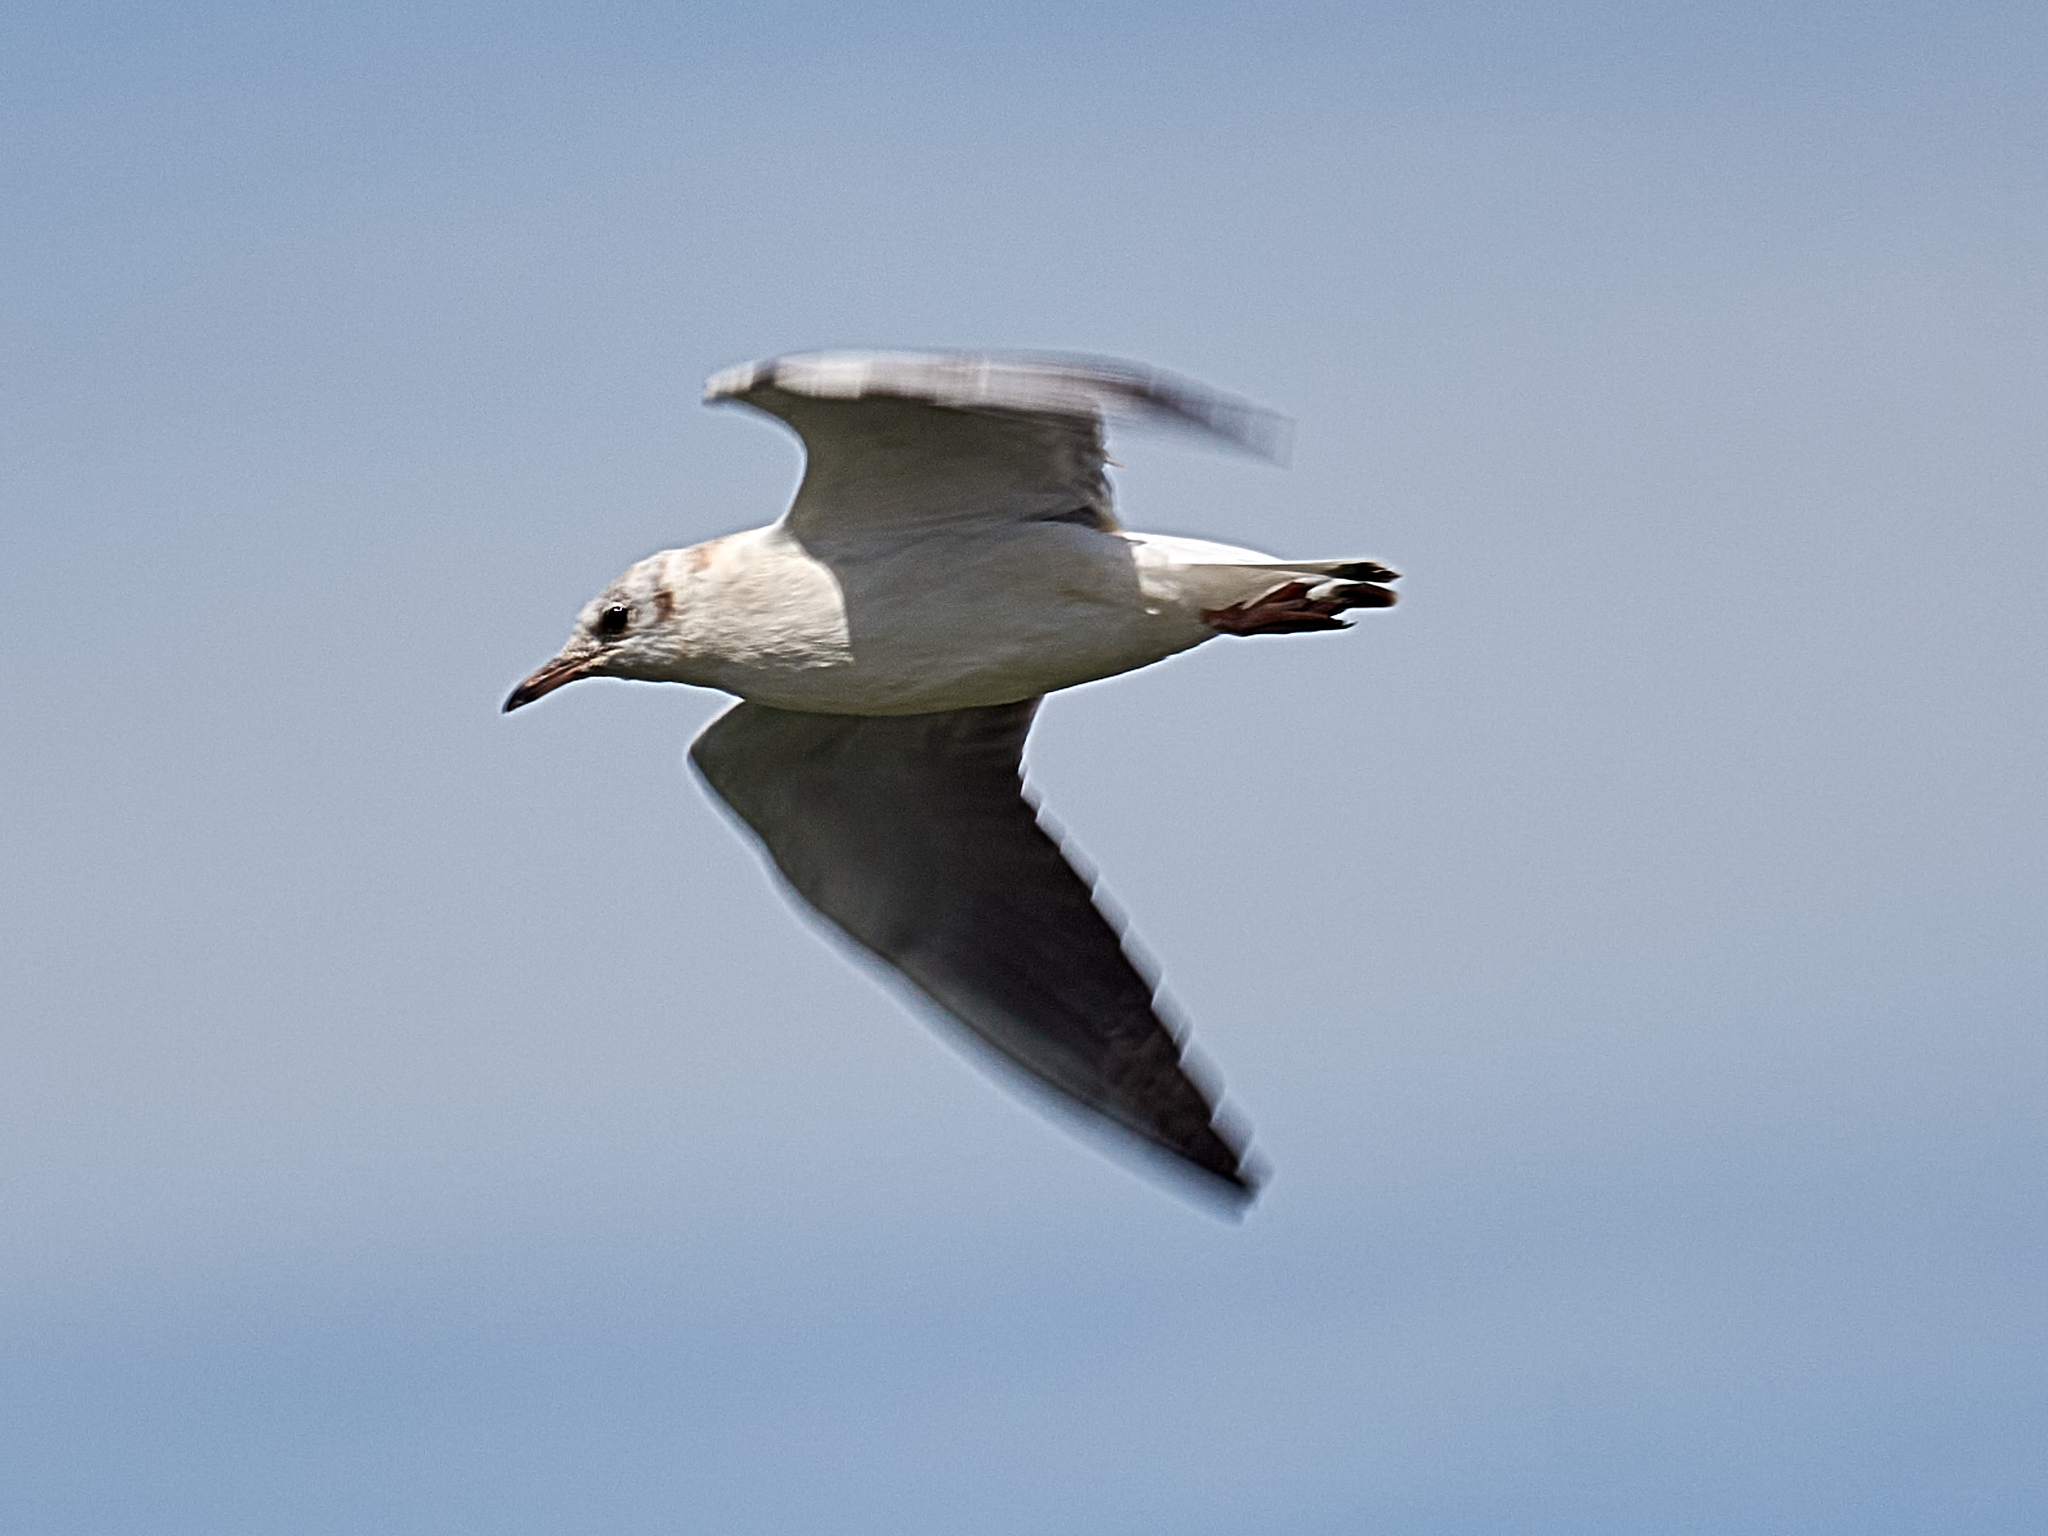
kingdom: Animalia
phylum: Chordata
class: Aves
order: Charadriiformes
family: Laridae
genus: Chroicocephalus
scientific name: Chroicocephalus ridibundus
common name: Black-headed gull
